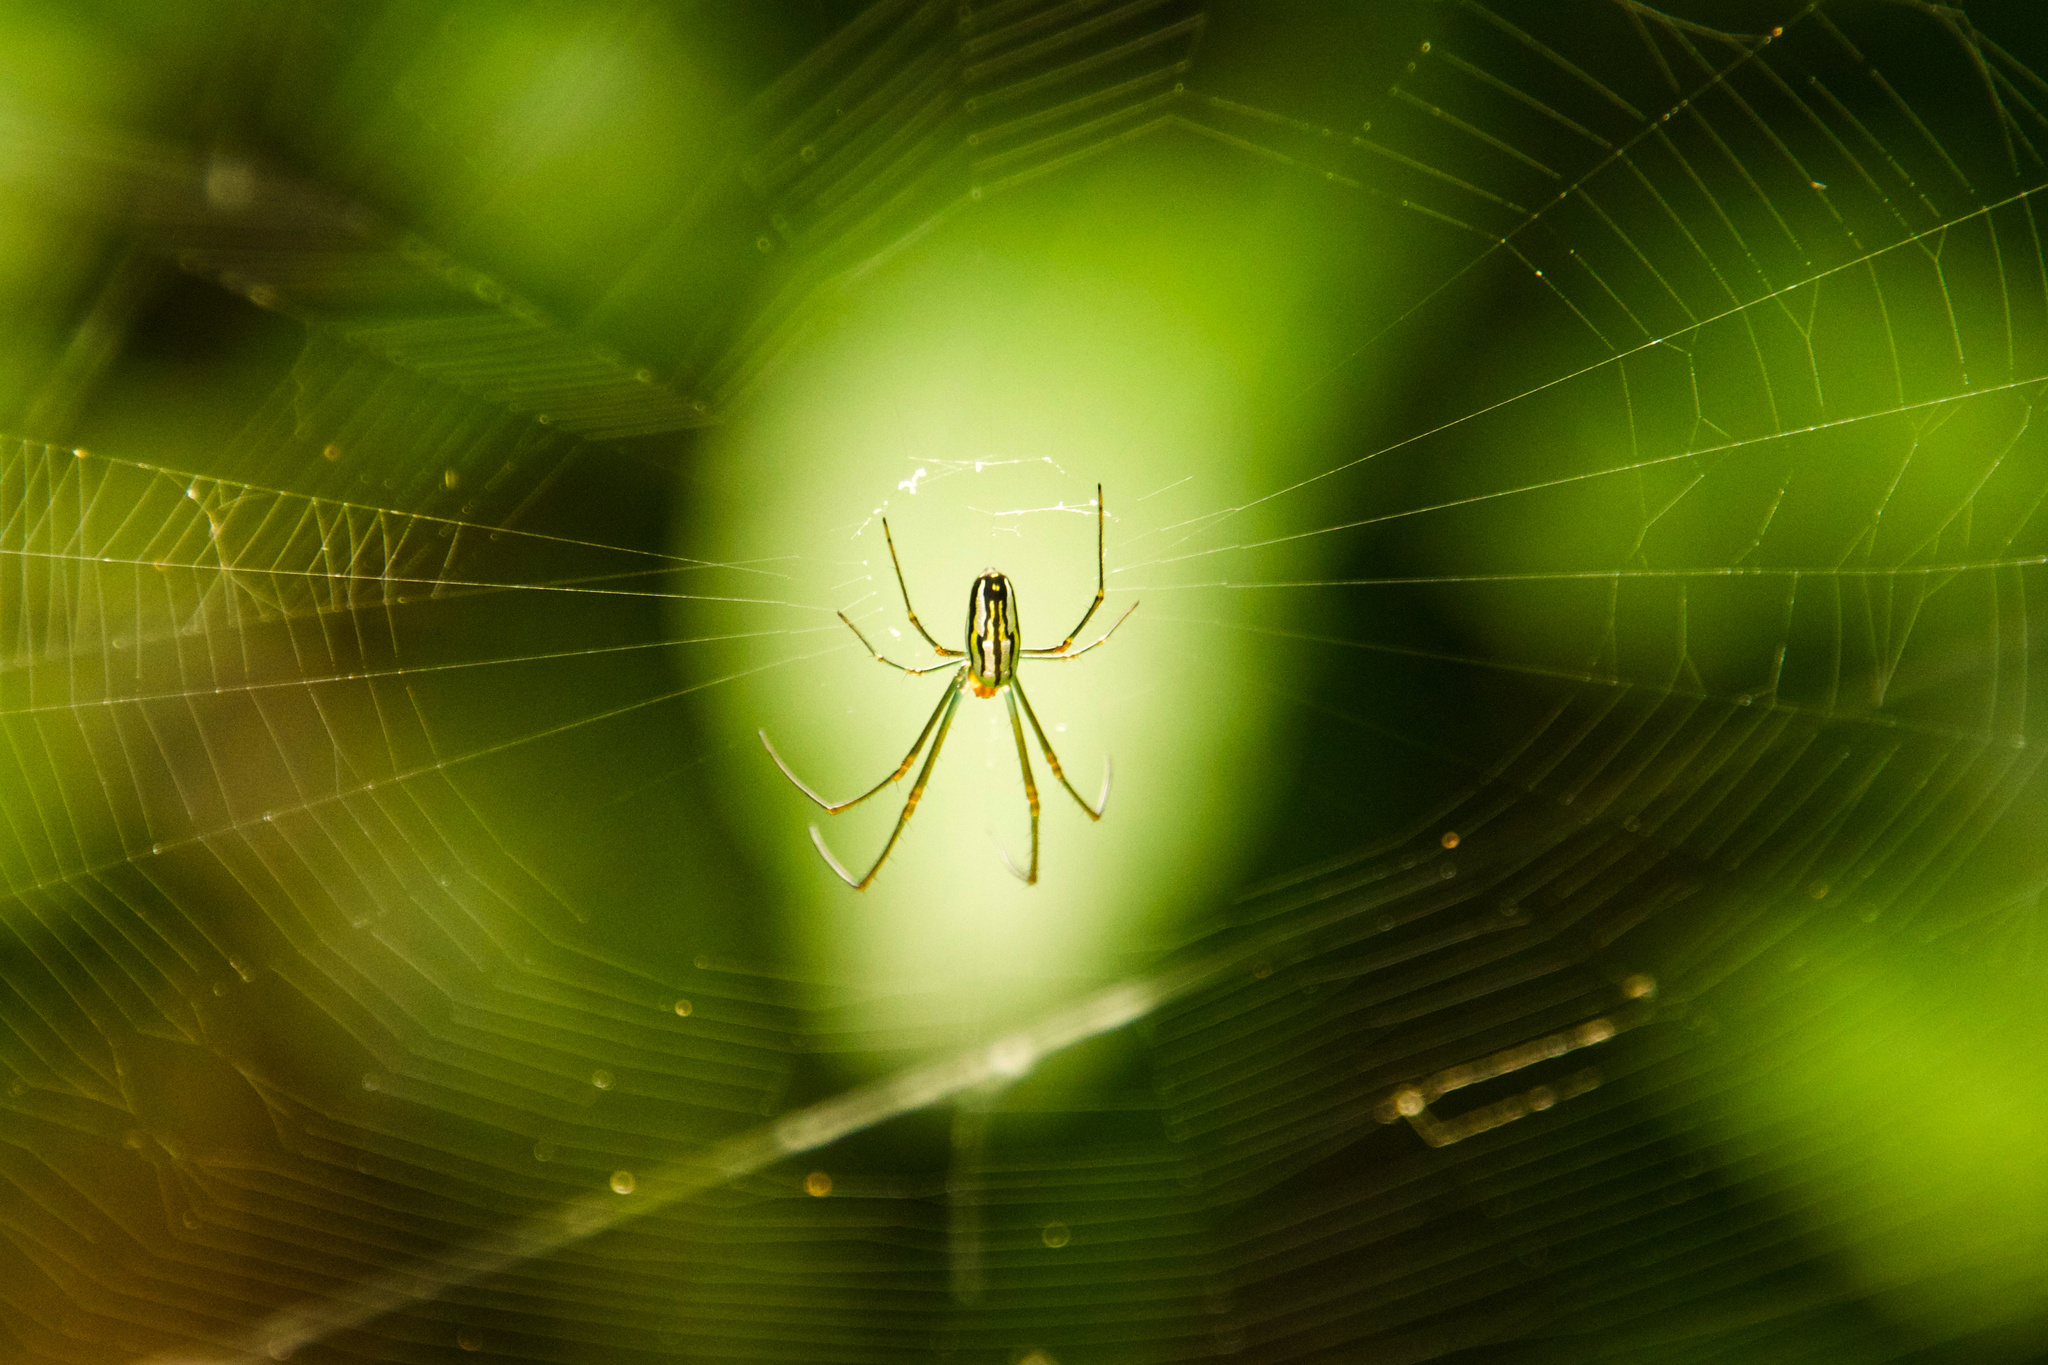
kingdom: Animalia
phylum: Arthropoda
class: Arachnida
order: Araneae
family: Tetragnathidae
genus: Leucauge
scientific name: Leucauge argyra
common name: Longjawed orb weavers
